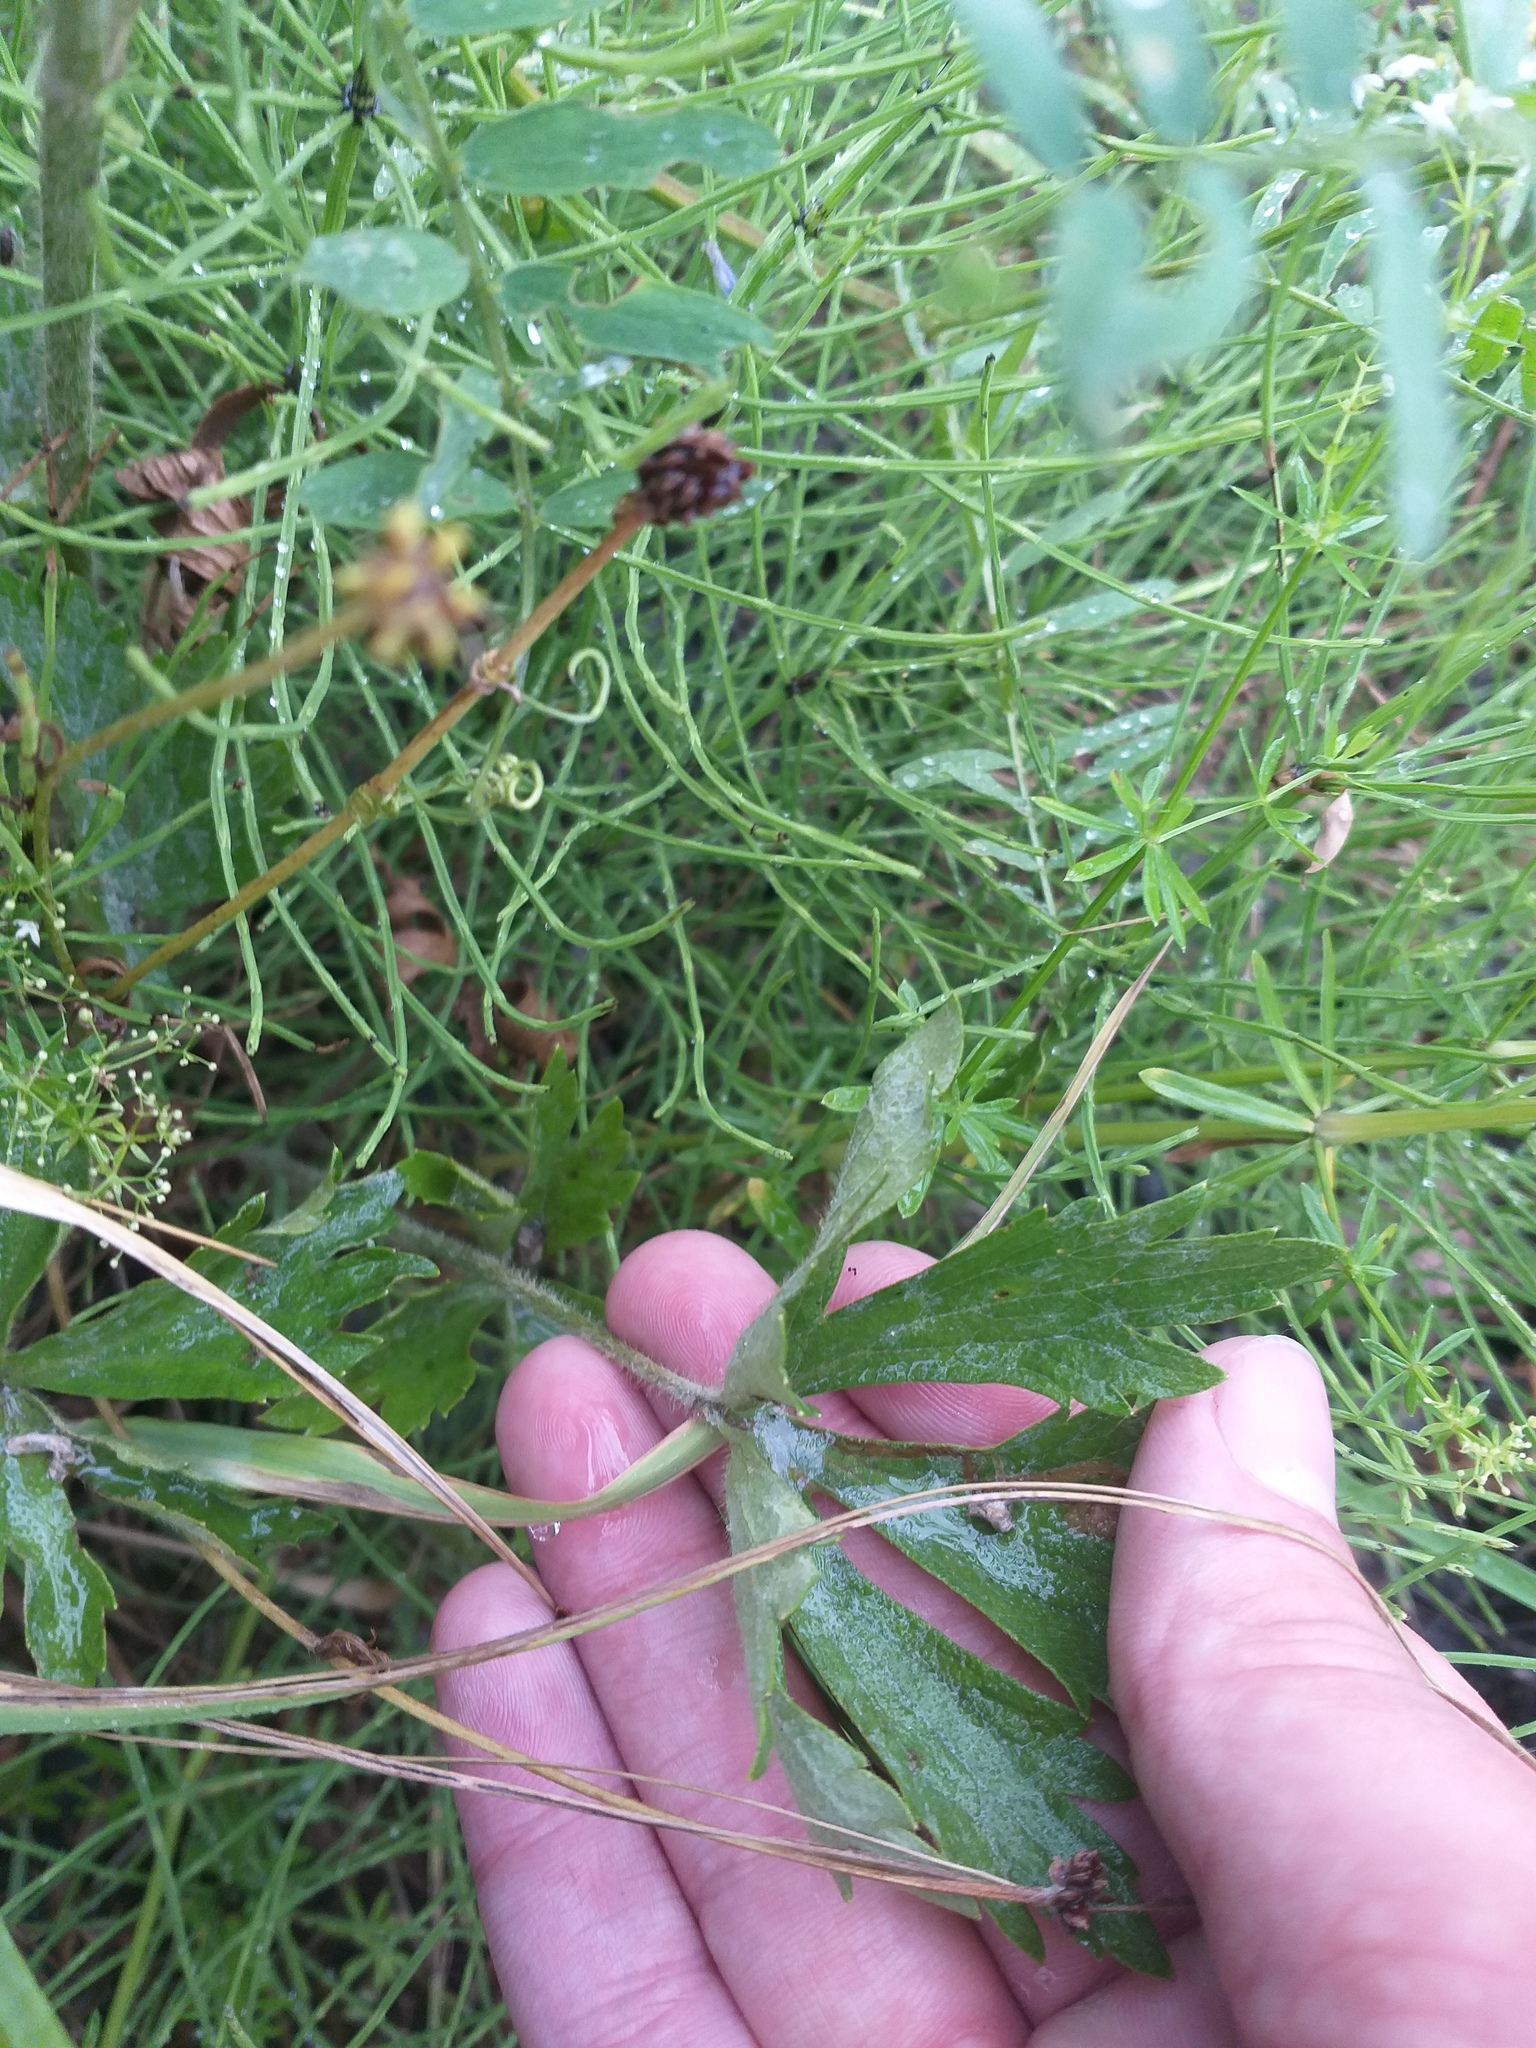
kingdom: Plantae
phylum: Tracheophyta
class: Magnoliopsida
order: Ranunculales
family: Ranunculaceae
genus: Ranunculus
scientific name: Ranunculus polyanthemos
